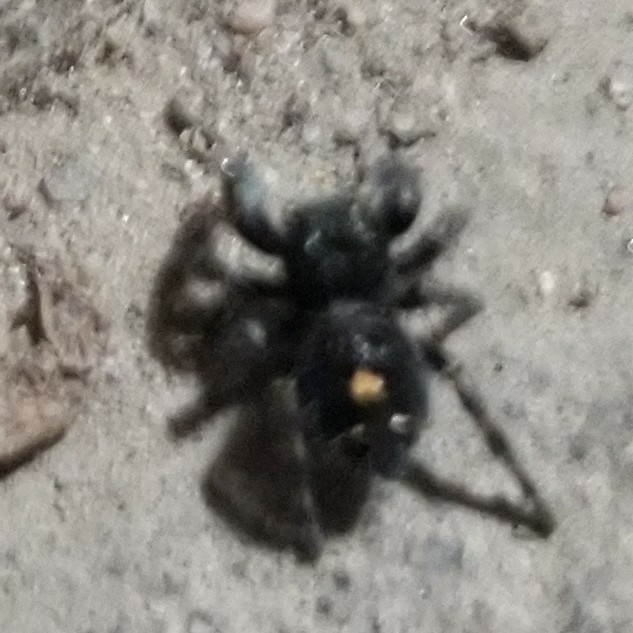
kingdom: Animalia
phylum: Arthropoda
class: Arachnida
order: Araneae
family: Salticidae
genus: Phidippus
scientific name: Phidippus audax
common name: Bold jumper
